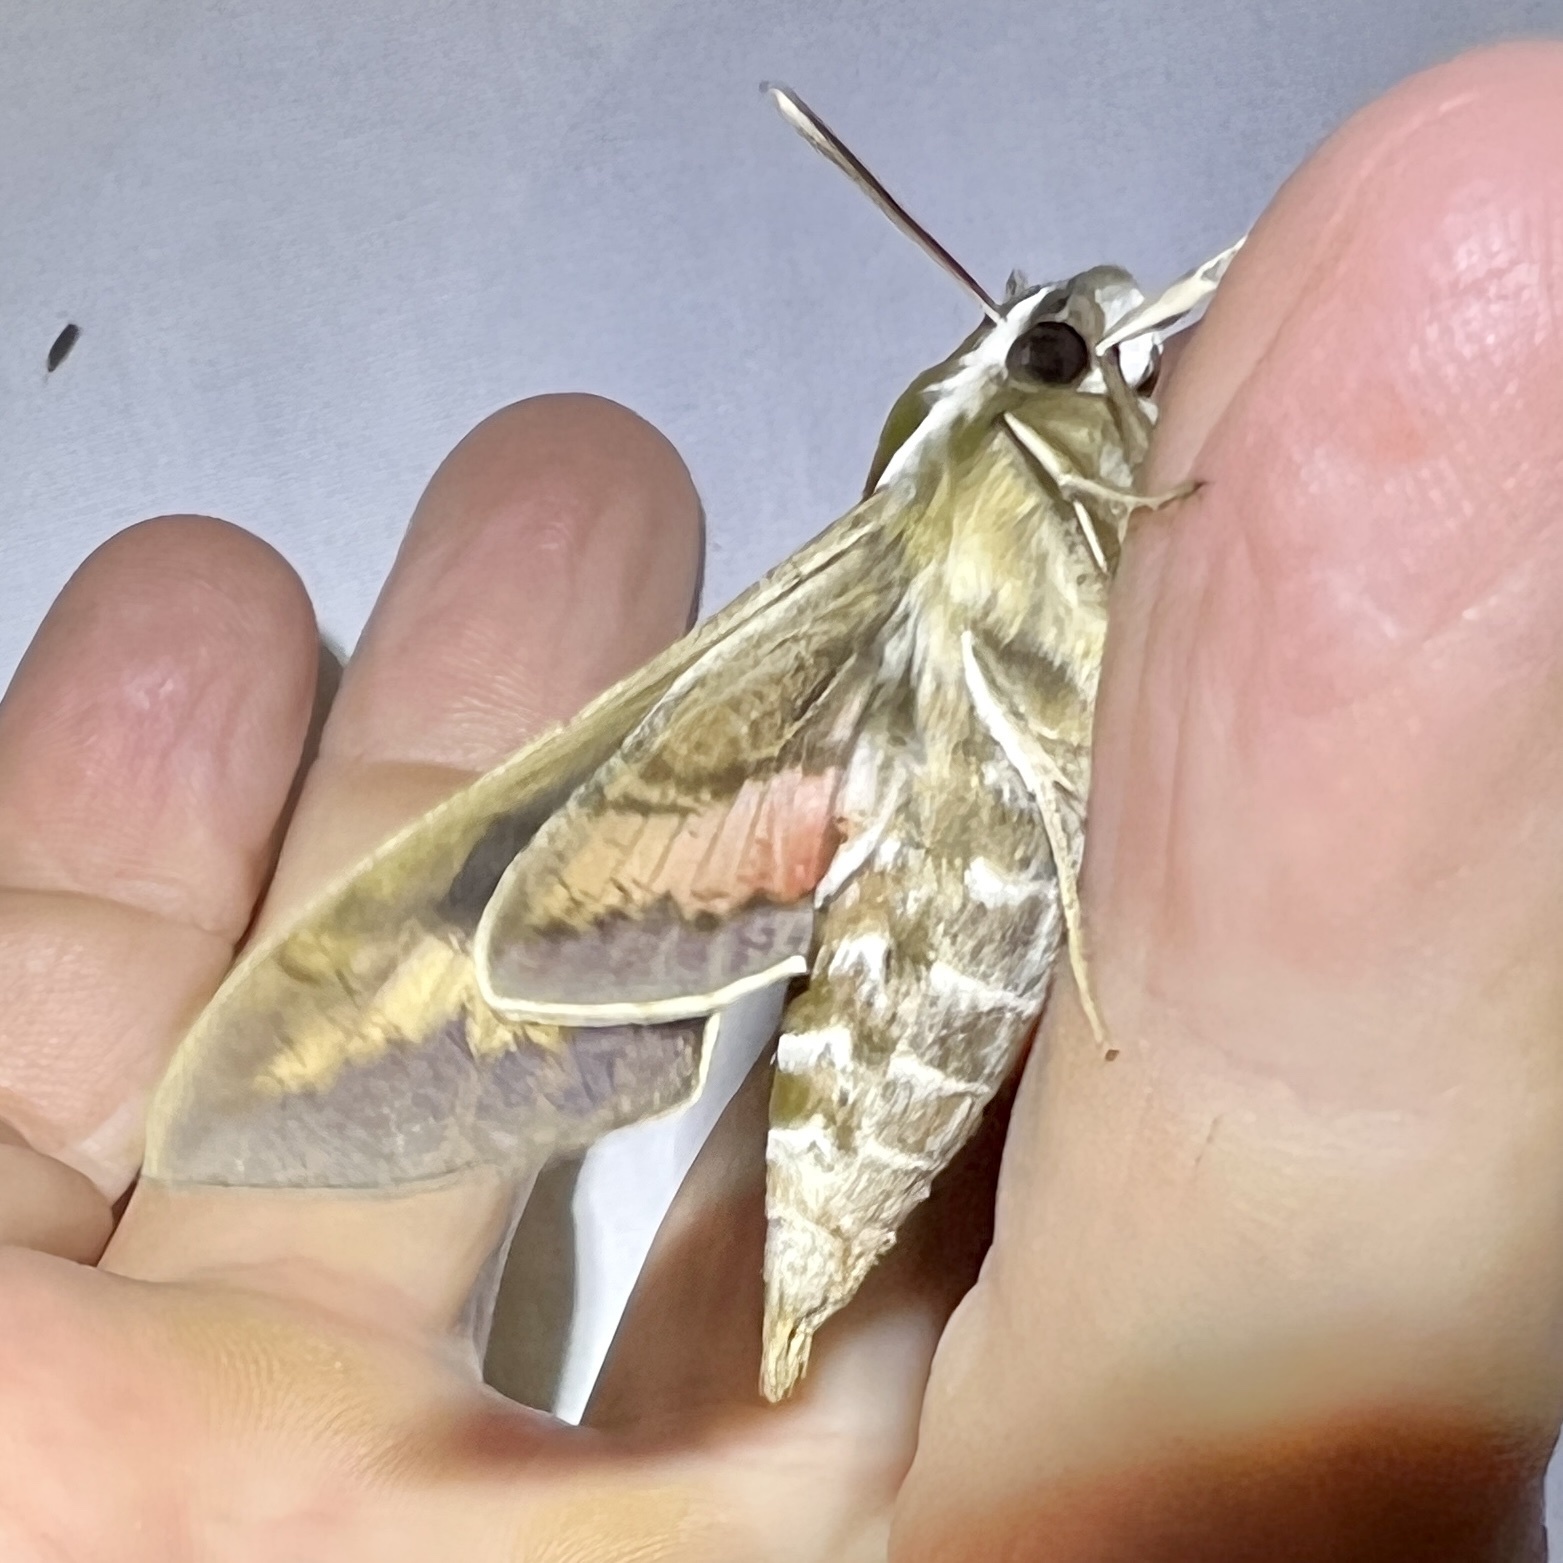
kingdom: Animalia
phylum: Arthropoda
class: Insecta
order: Lepidoptera
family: Sphingidae
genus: Hyles
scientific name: Hyles gallii
